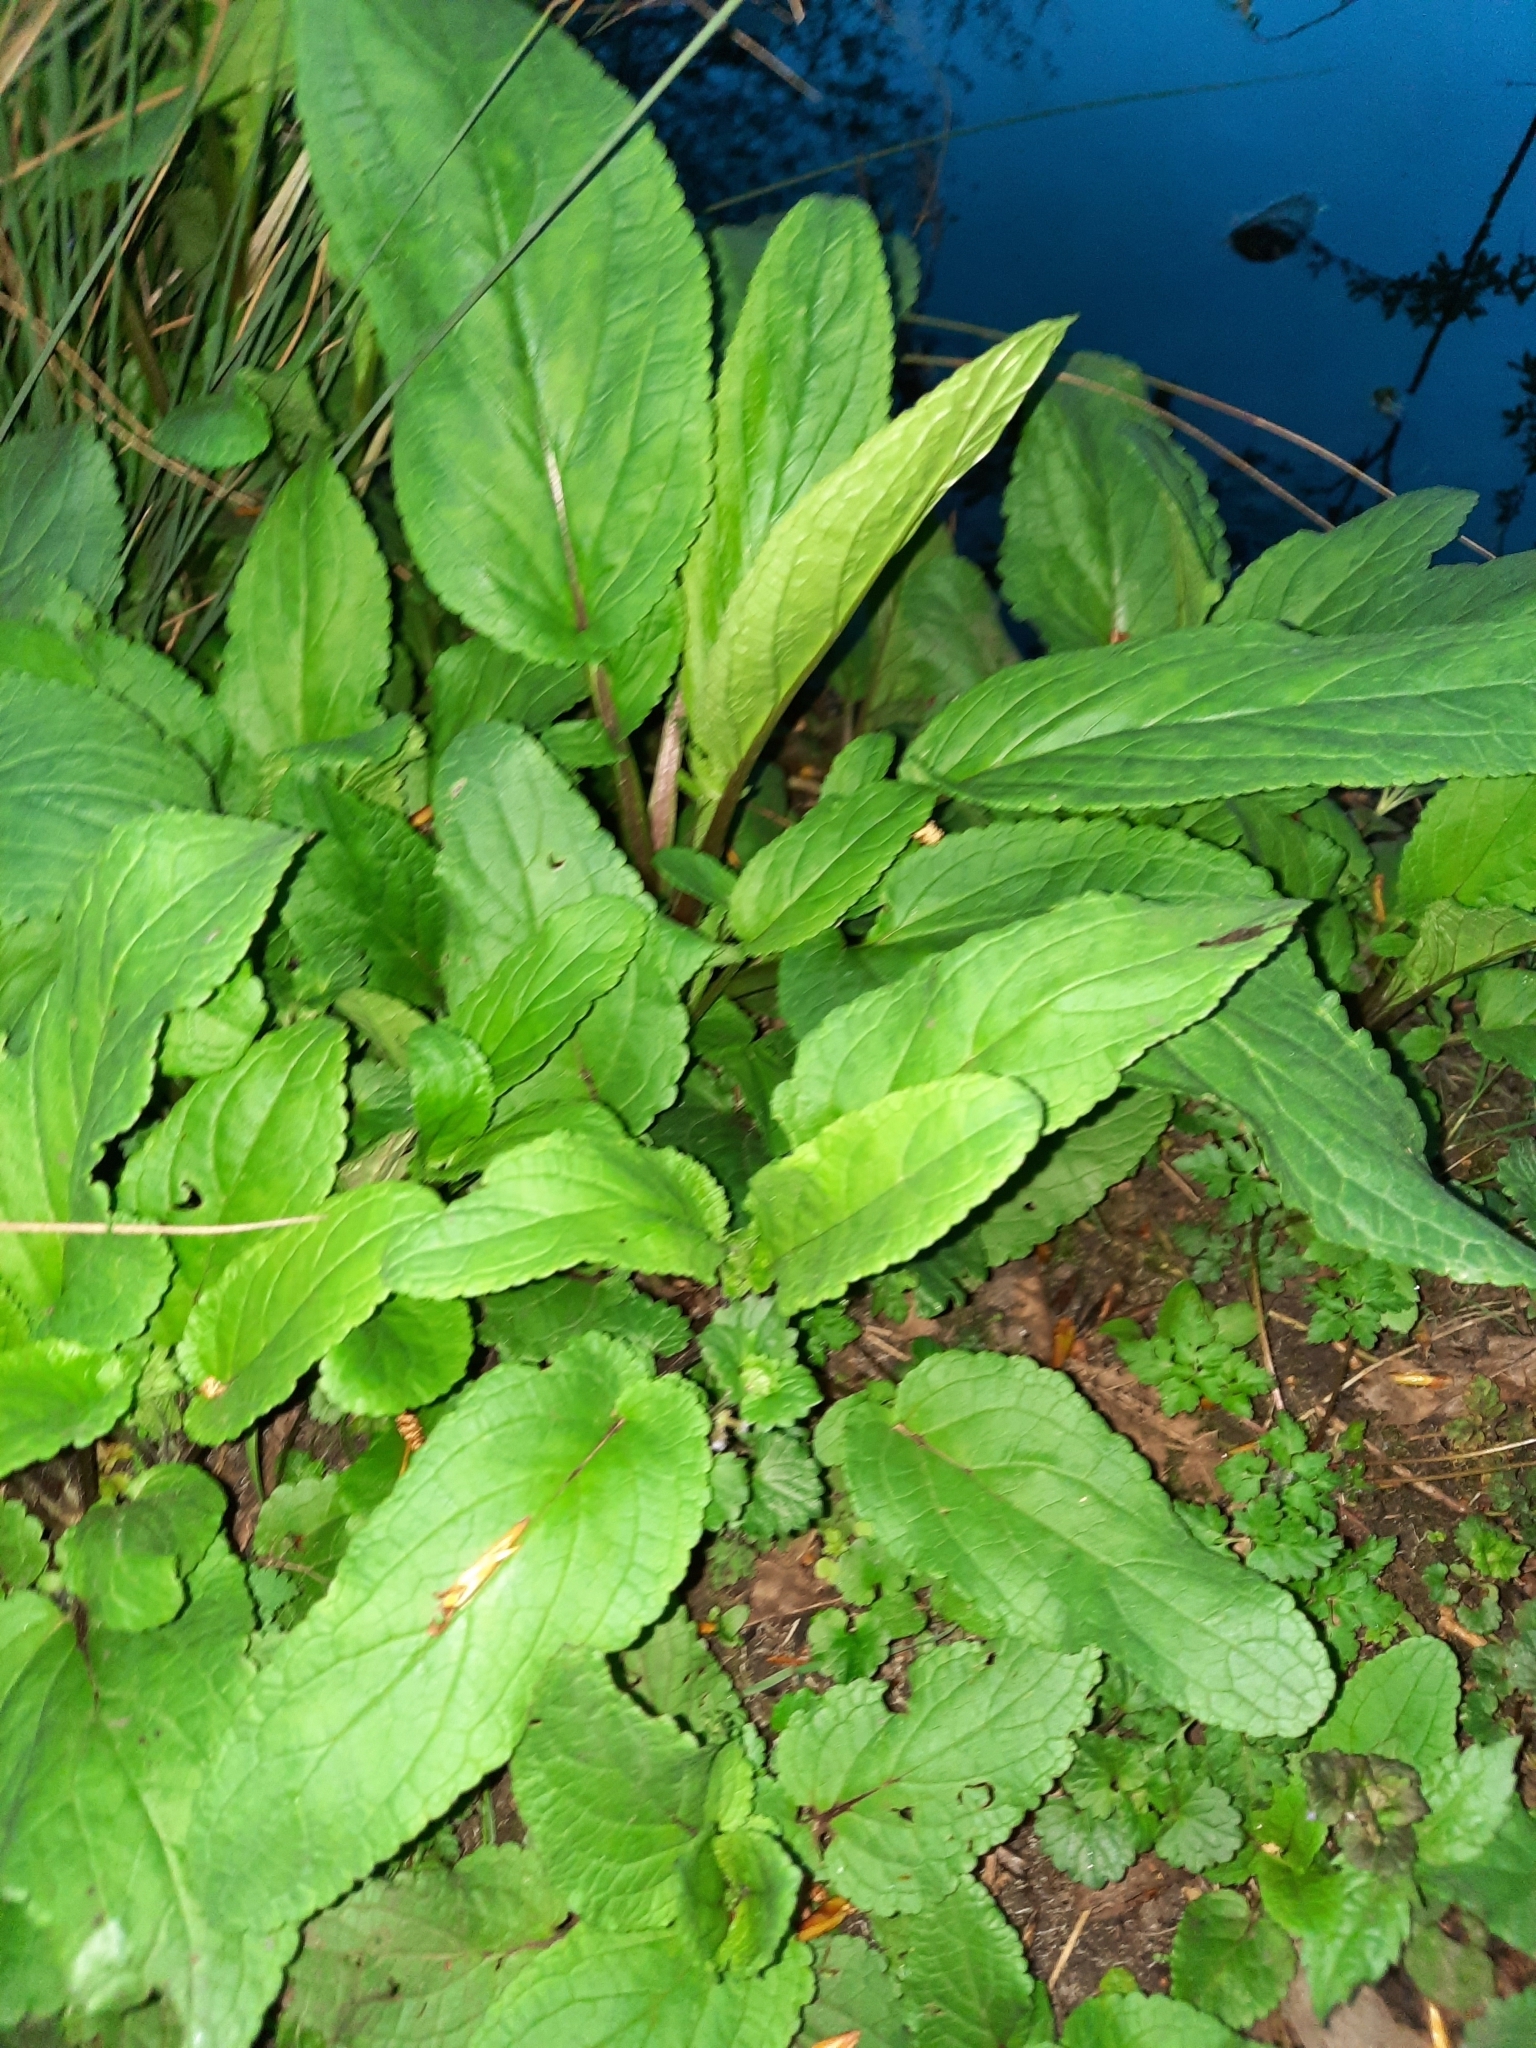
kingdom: Plantae
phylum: Tracheophyta
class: Magnoliopsida
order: Lamiales
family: Scrophulariaceae
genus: Scrophularia
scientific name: Scrophularia auriculata
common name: Water betony
